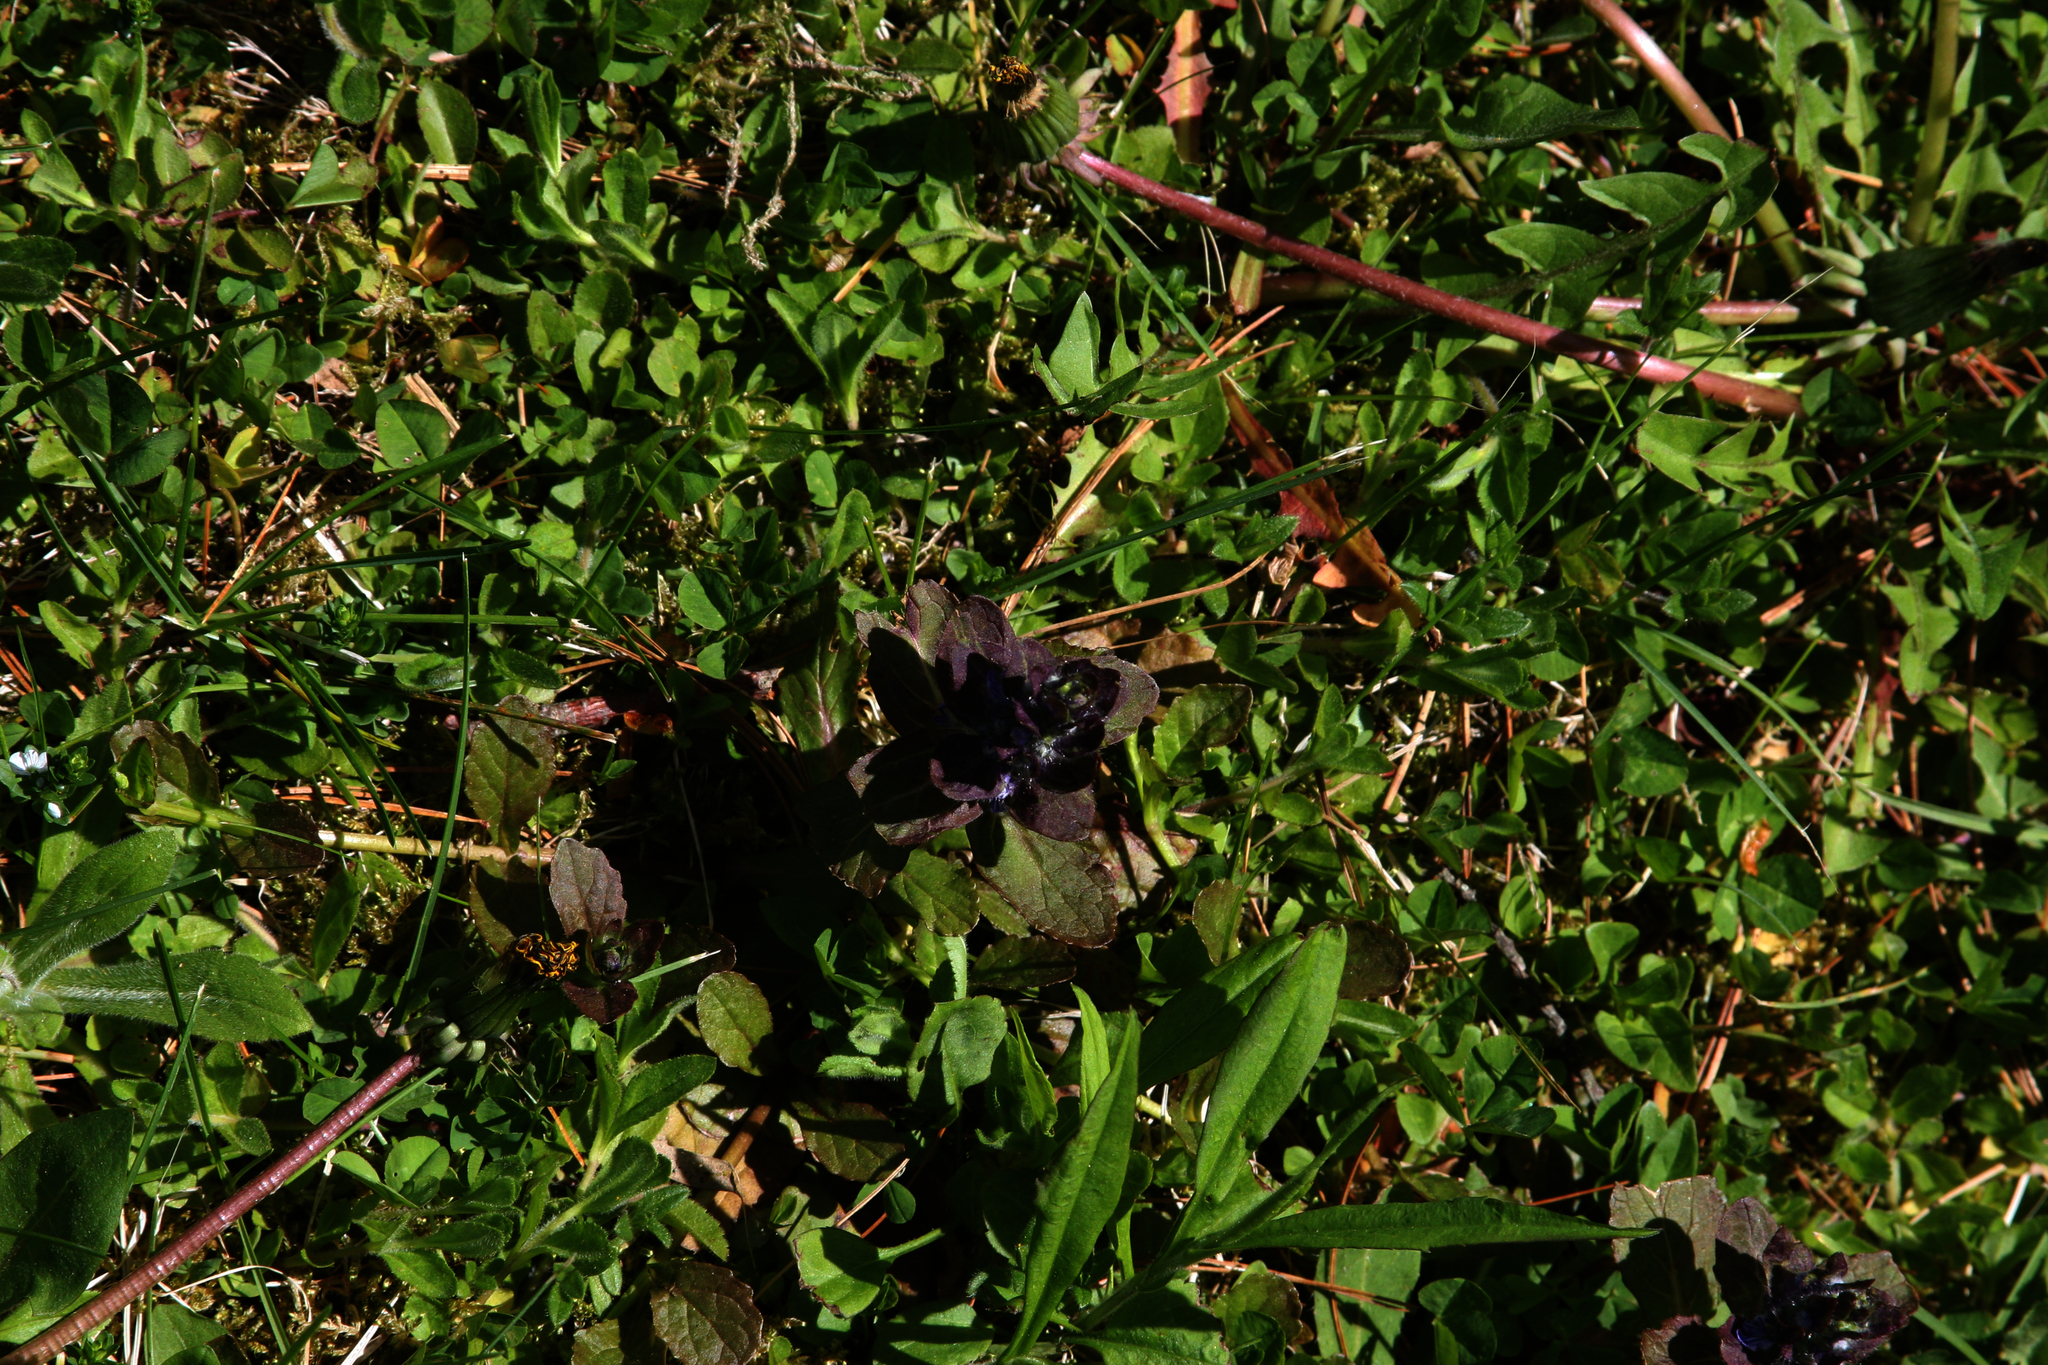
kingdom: Plantae
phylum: Tracheophyta
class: Magnoliopsida
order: Lamiales
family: Lamiaceae
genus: Ajuga
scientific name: Ajuga reptans
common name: Bugle
